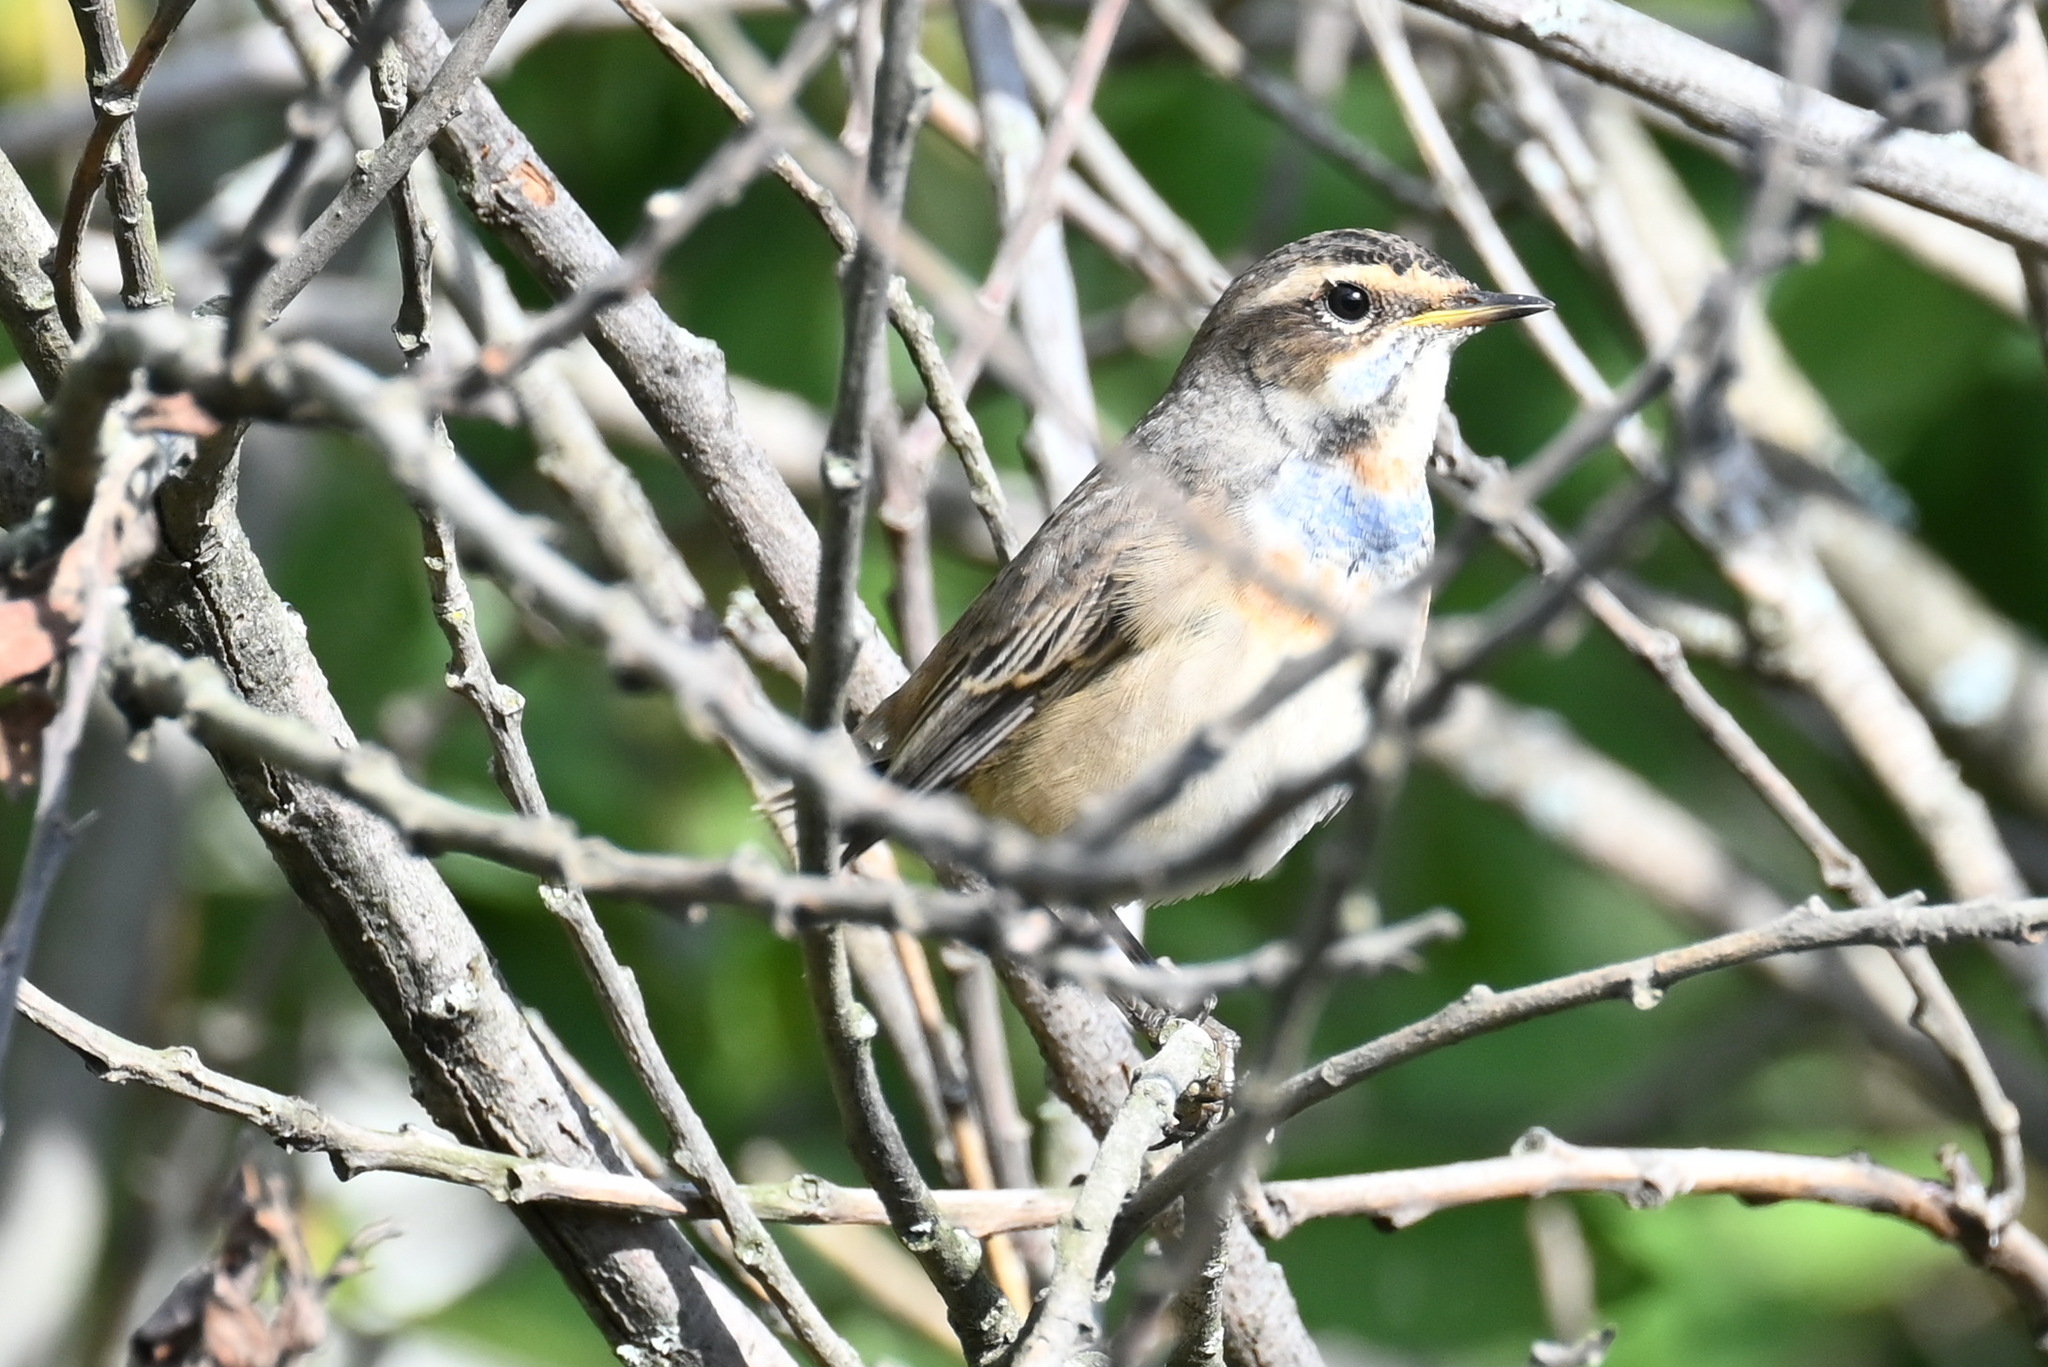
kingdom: Animalia
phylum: Chordata
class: Aves
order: Passeriformes
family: Muscicapidae
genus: Luscinia
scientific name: Luscinia svecica
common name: Bluethroat
